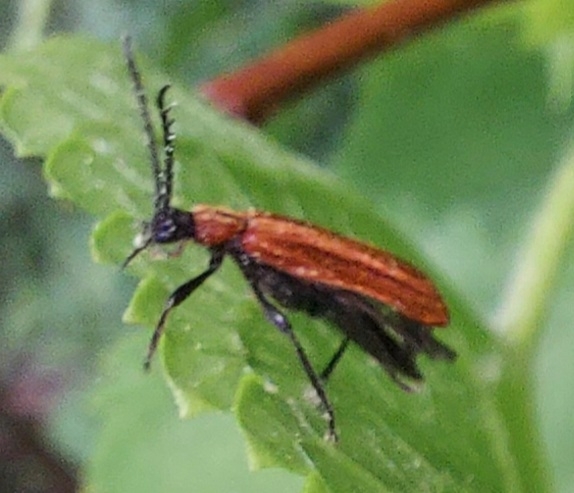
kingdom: Animalia
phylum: Arthropoda
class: Insecta
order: Coleoptera
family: Pyrochroidae
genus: Schizotus
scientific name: Schizotus pectinicornis
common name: Scarce cardinal beetle
